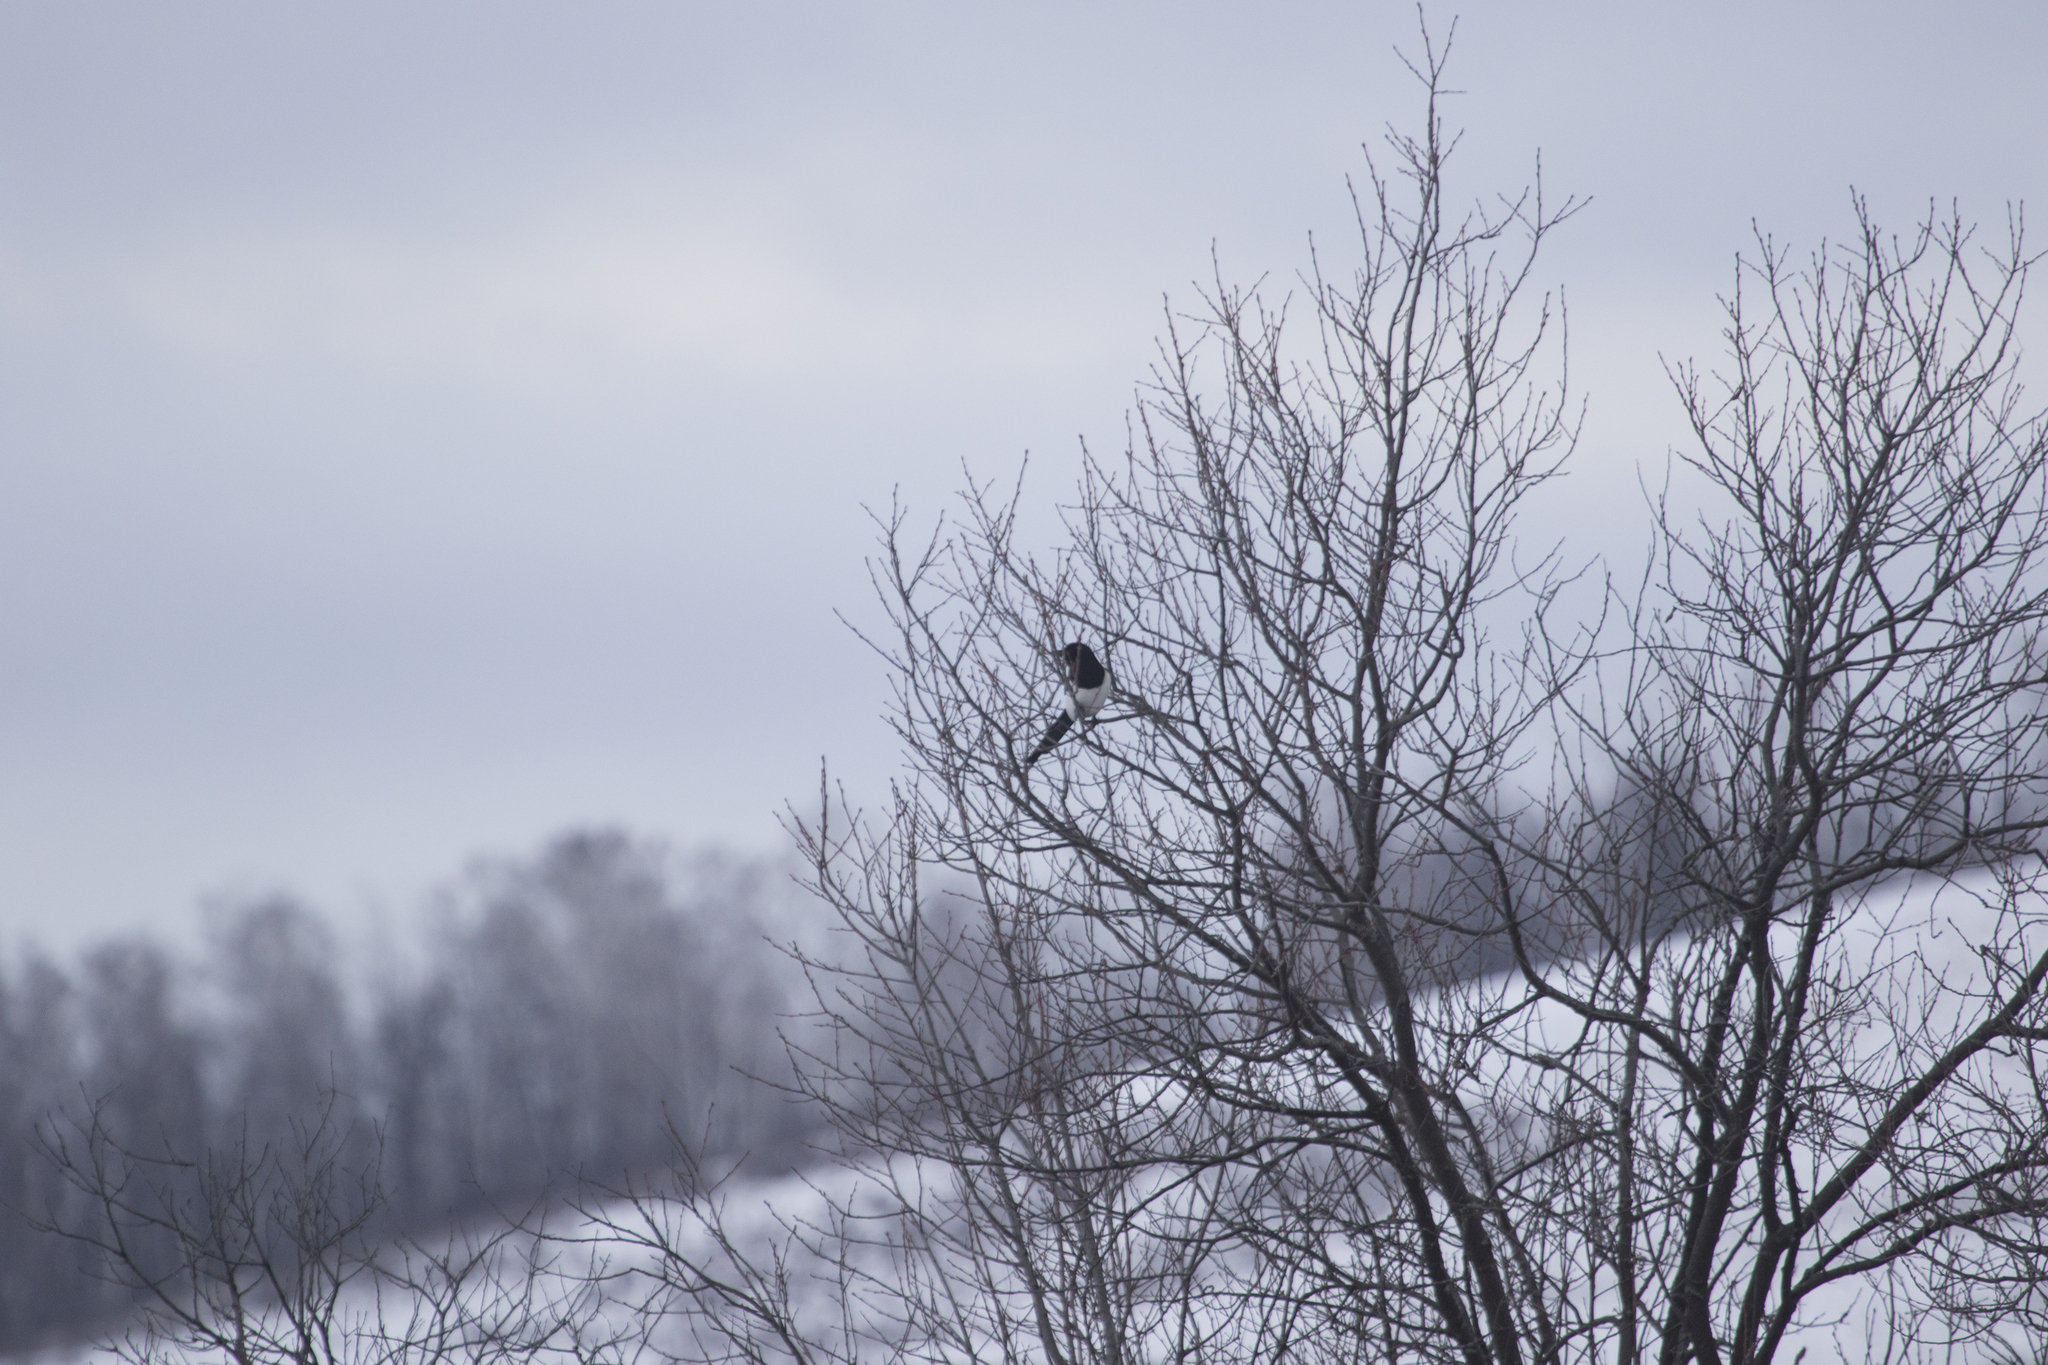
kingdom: Animalia
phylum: Chordata
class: Aves
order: Passeriformes
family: Corvidae
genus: Pica
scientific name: Pica pica
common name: Eurasian magpie
